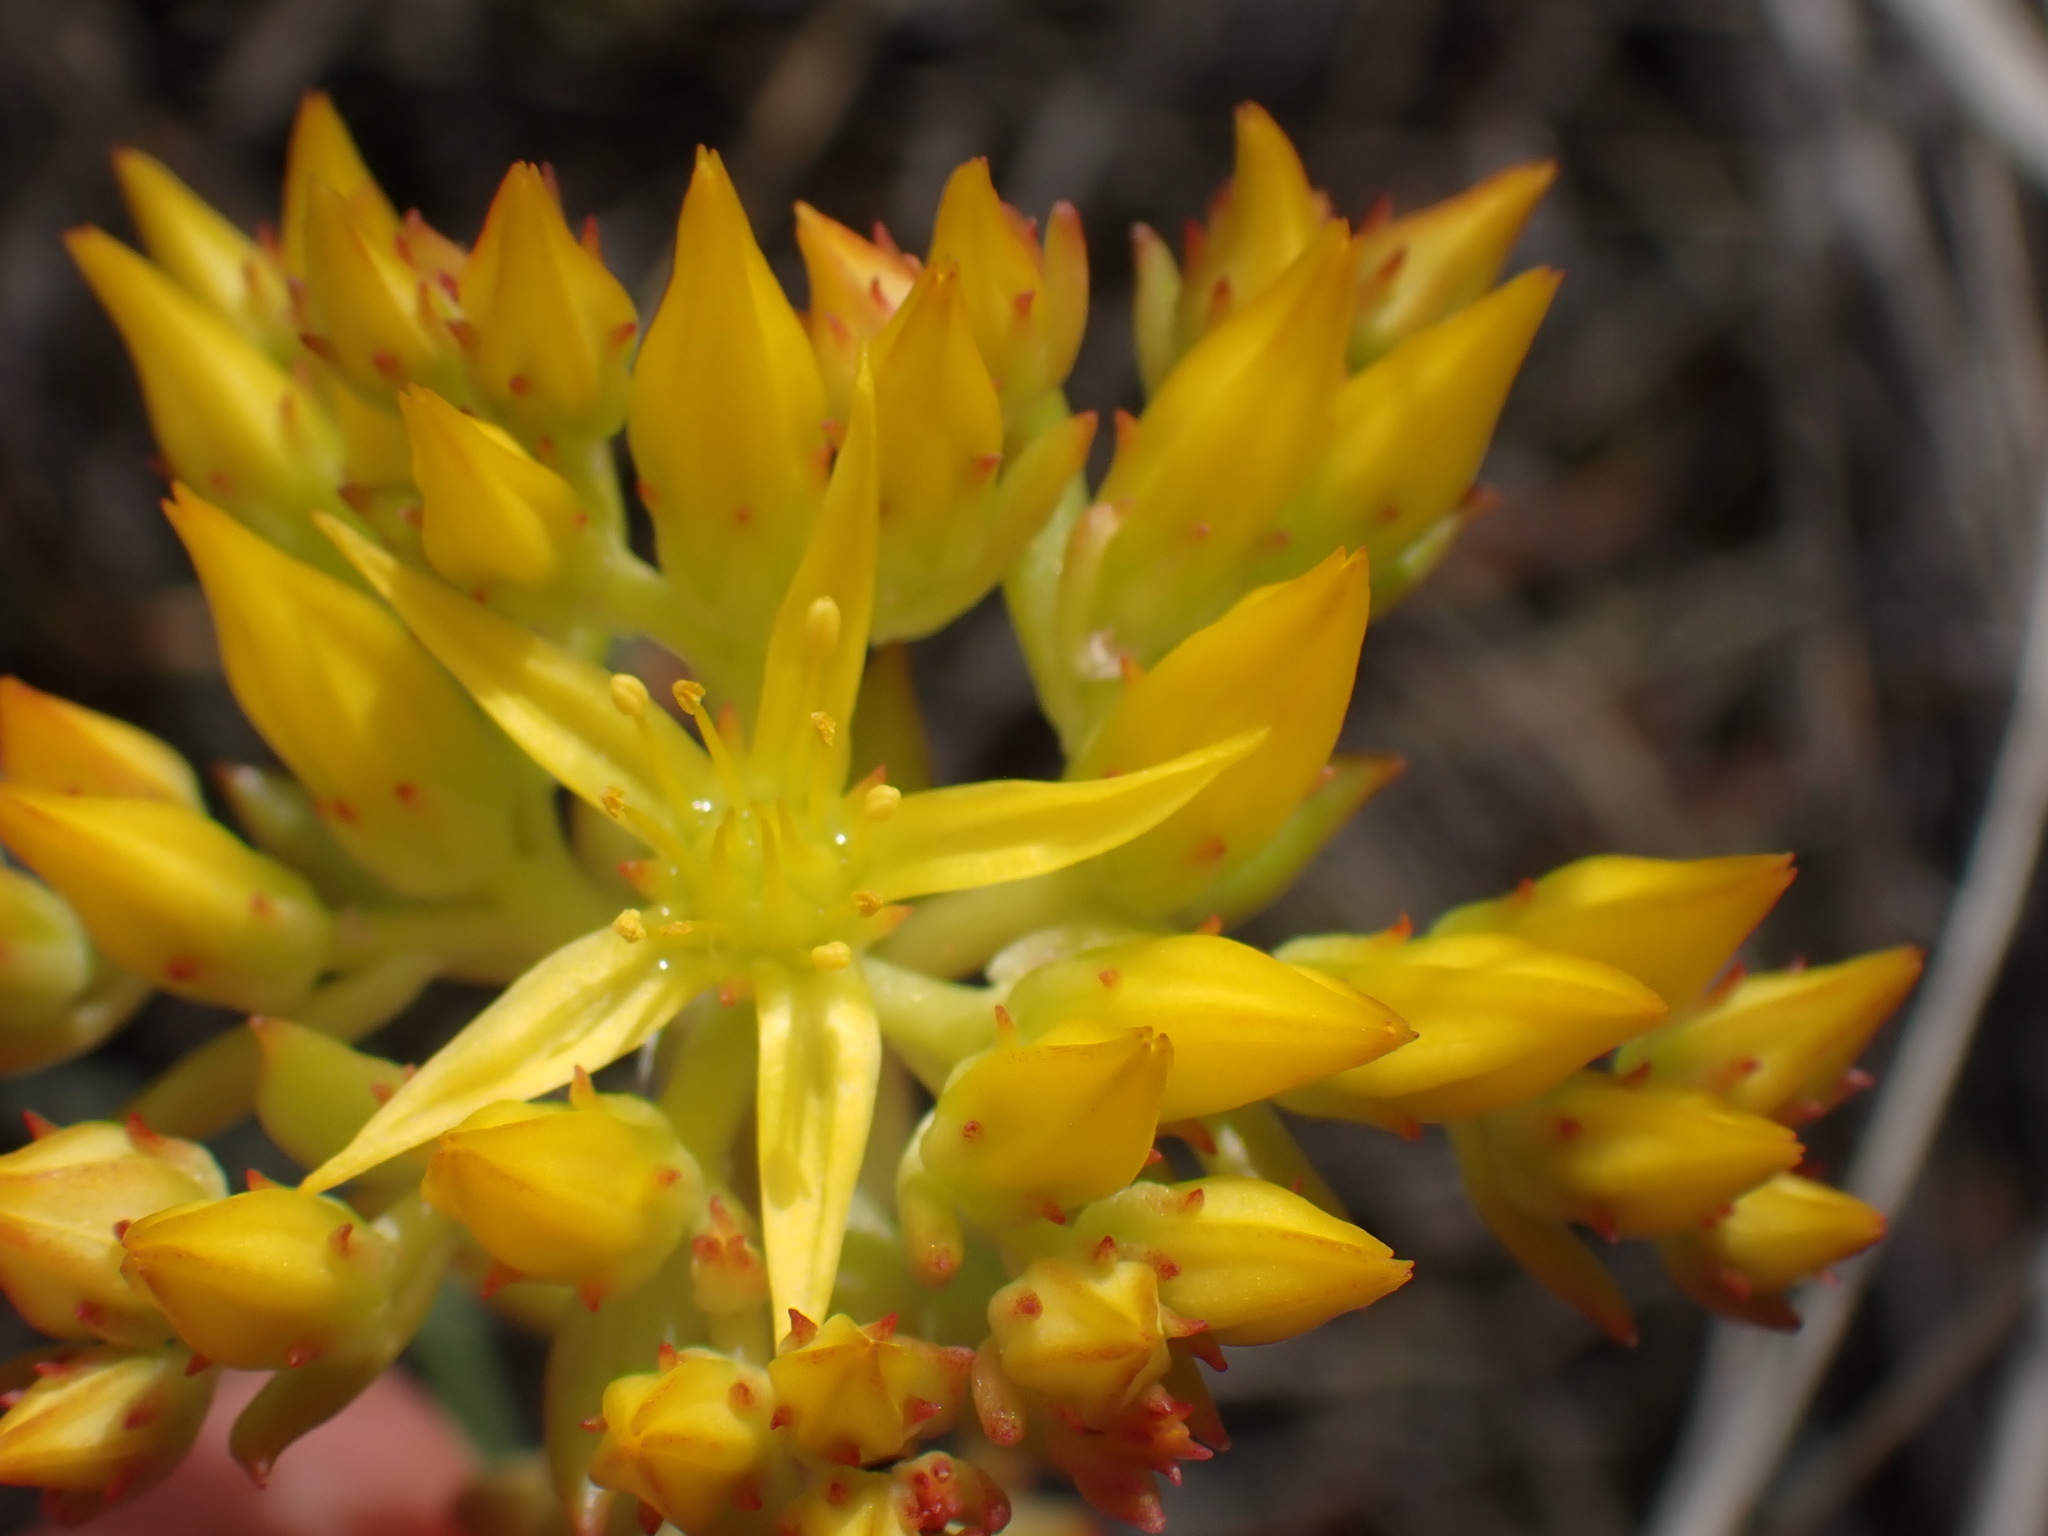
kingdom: Plantae
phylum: Tracheophyta
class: Magnoliopsida
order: Saxifragales
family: Crassulaceae
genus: Sedum
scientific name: Sedum lanceolatum
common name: Common stonecrop
